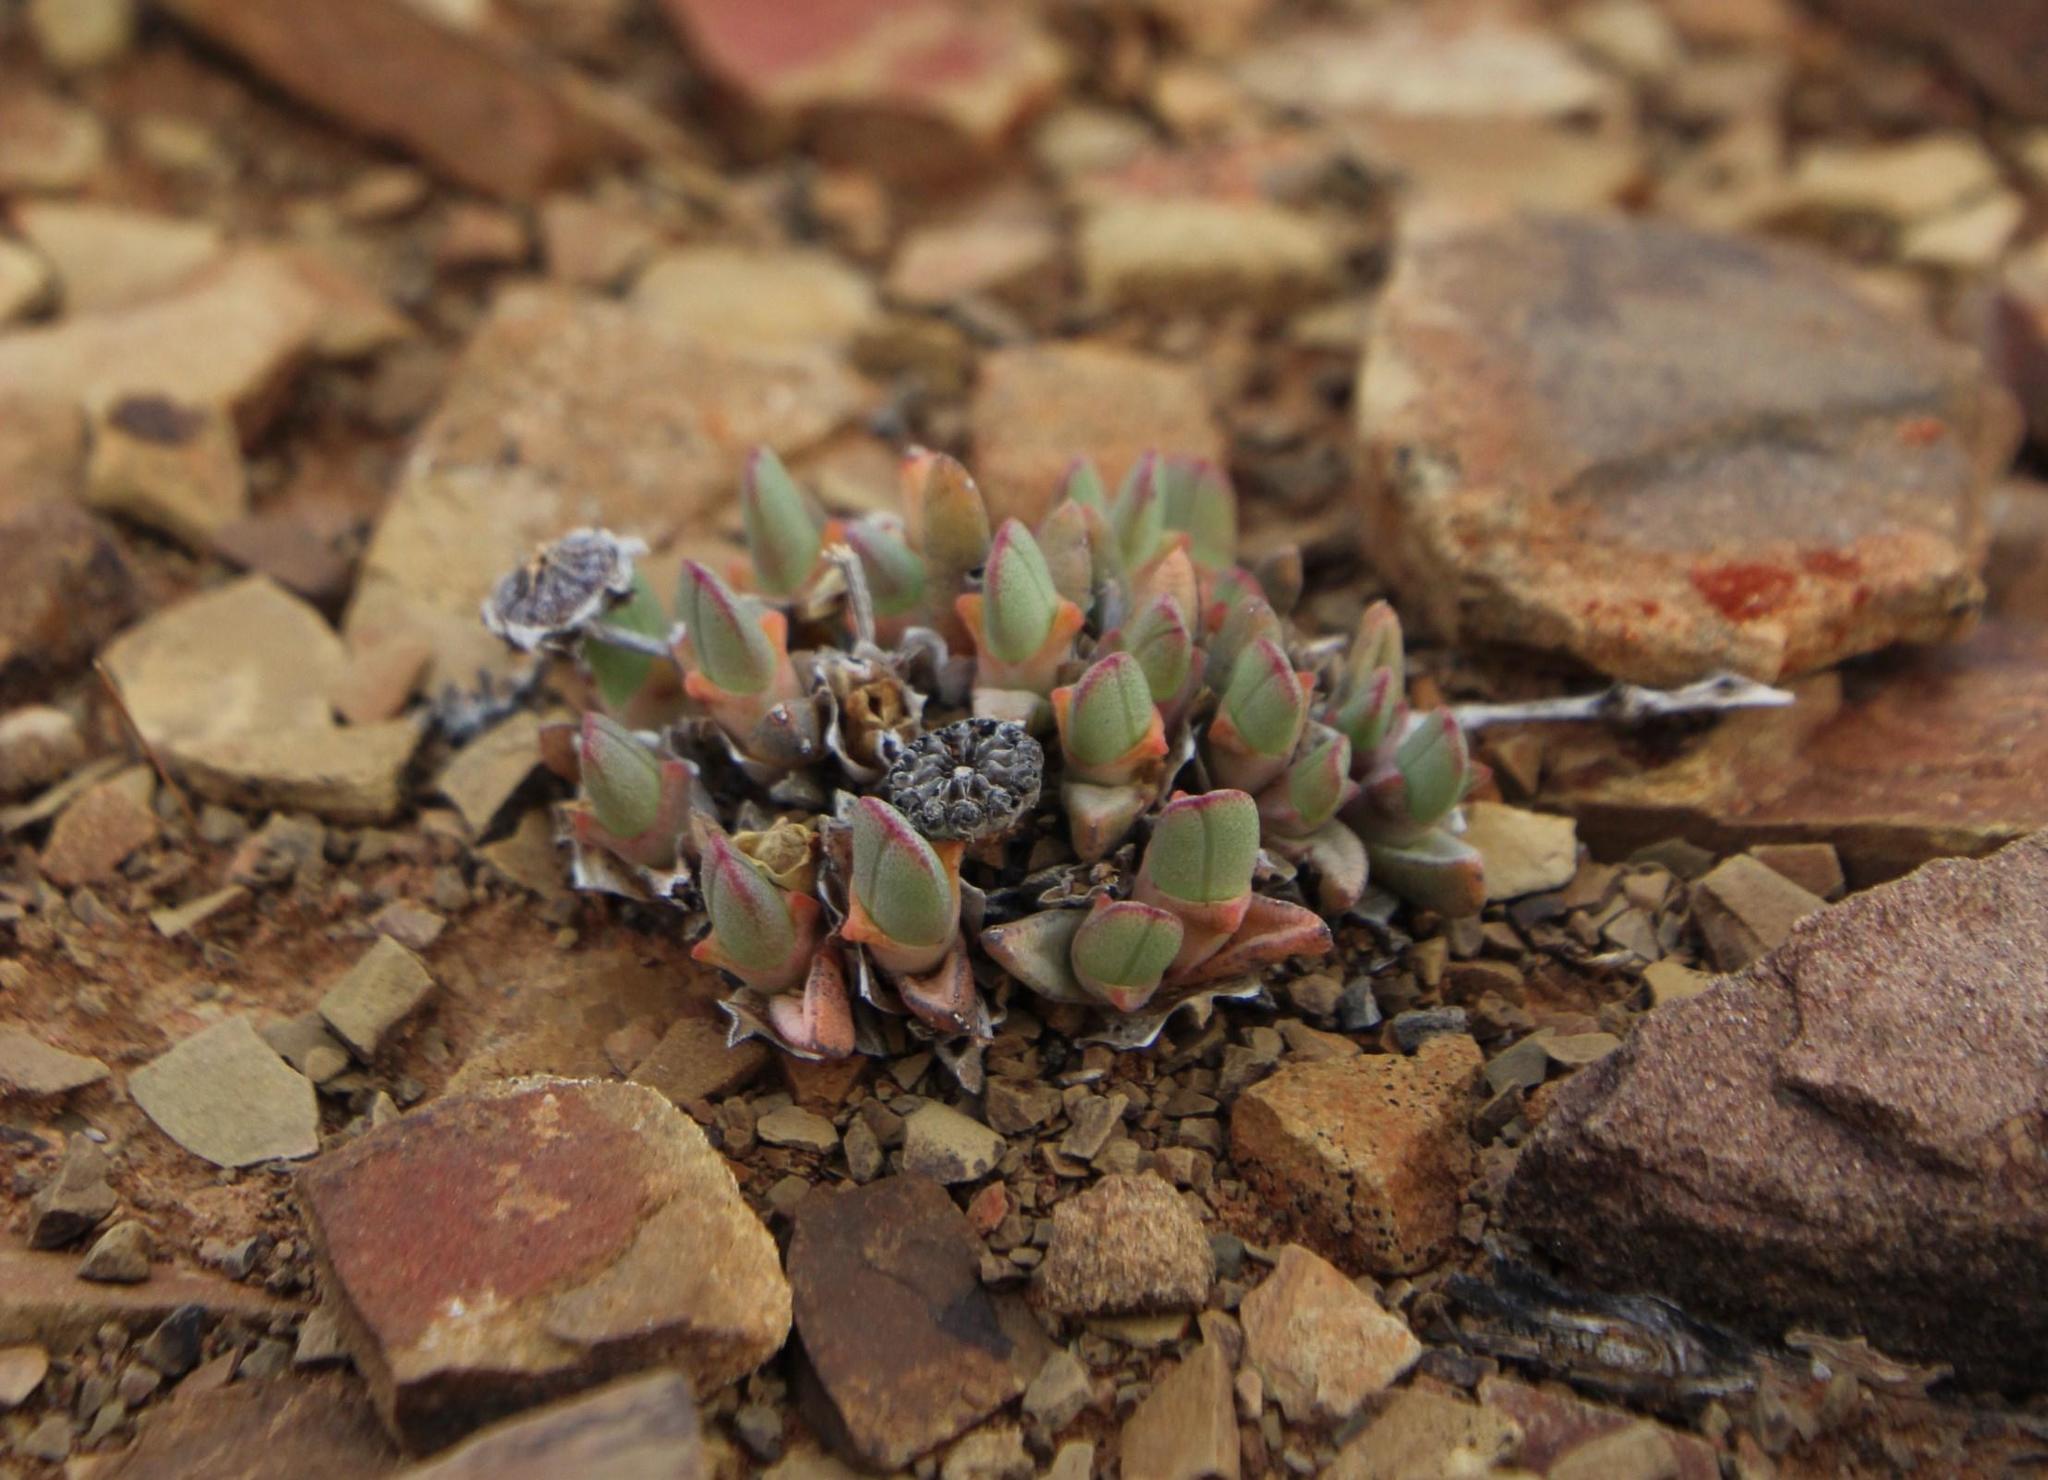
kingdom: Plantae
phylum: Tracheophyta
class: Magnoliopsida
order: Caryophyllales
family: Aizoaceae
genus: Cheiridopsis
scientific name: Cheiridopsis namaquensis
